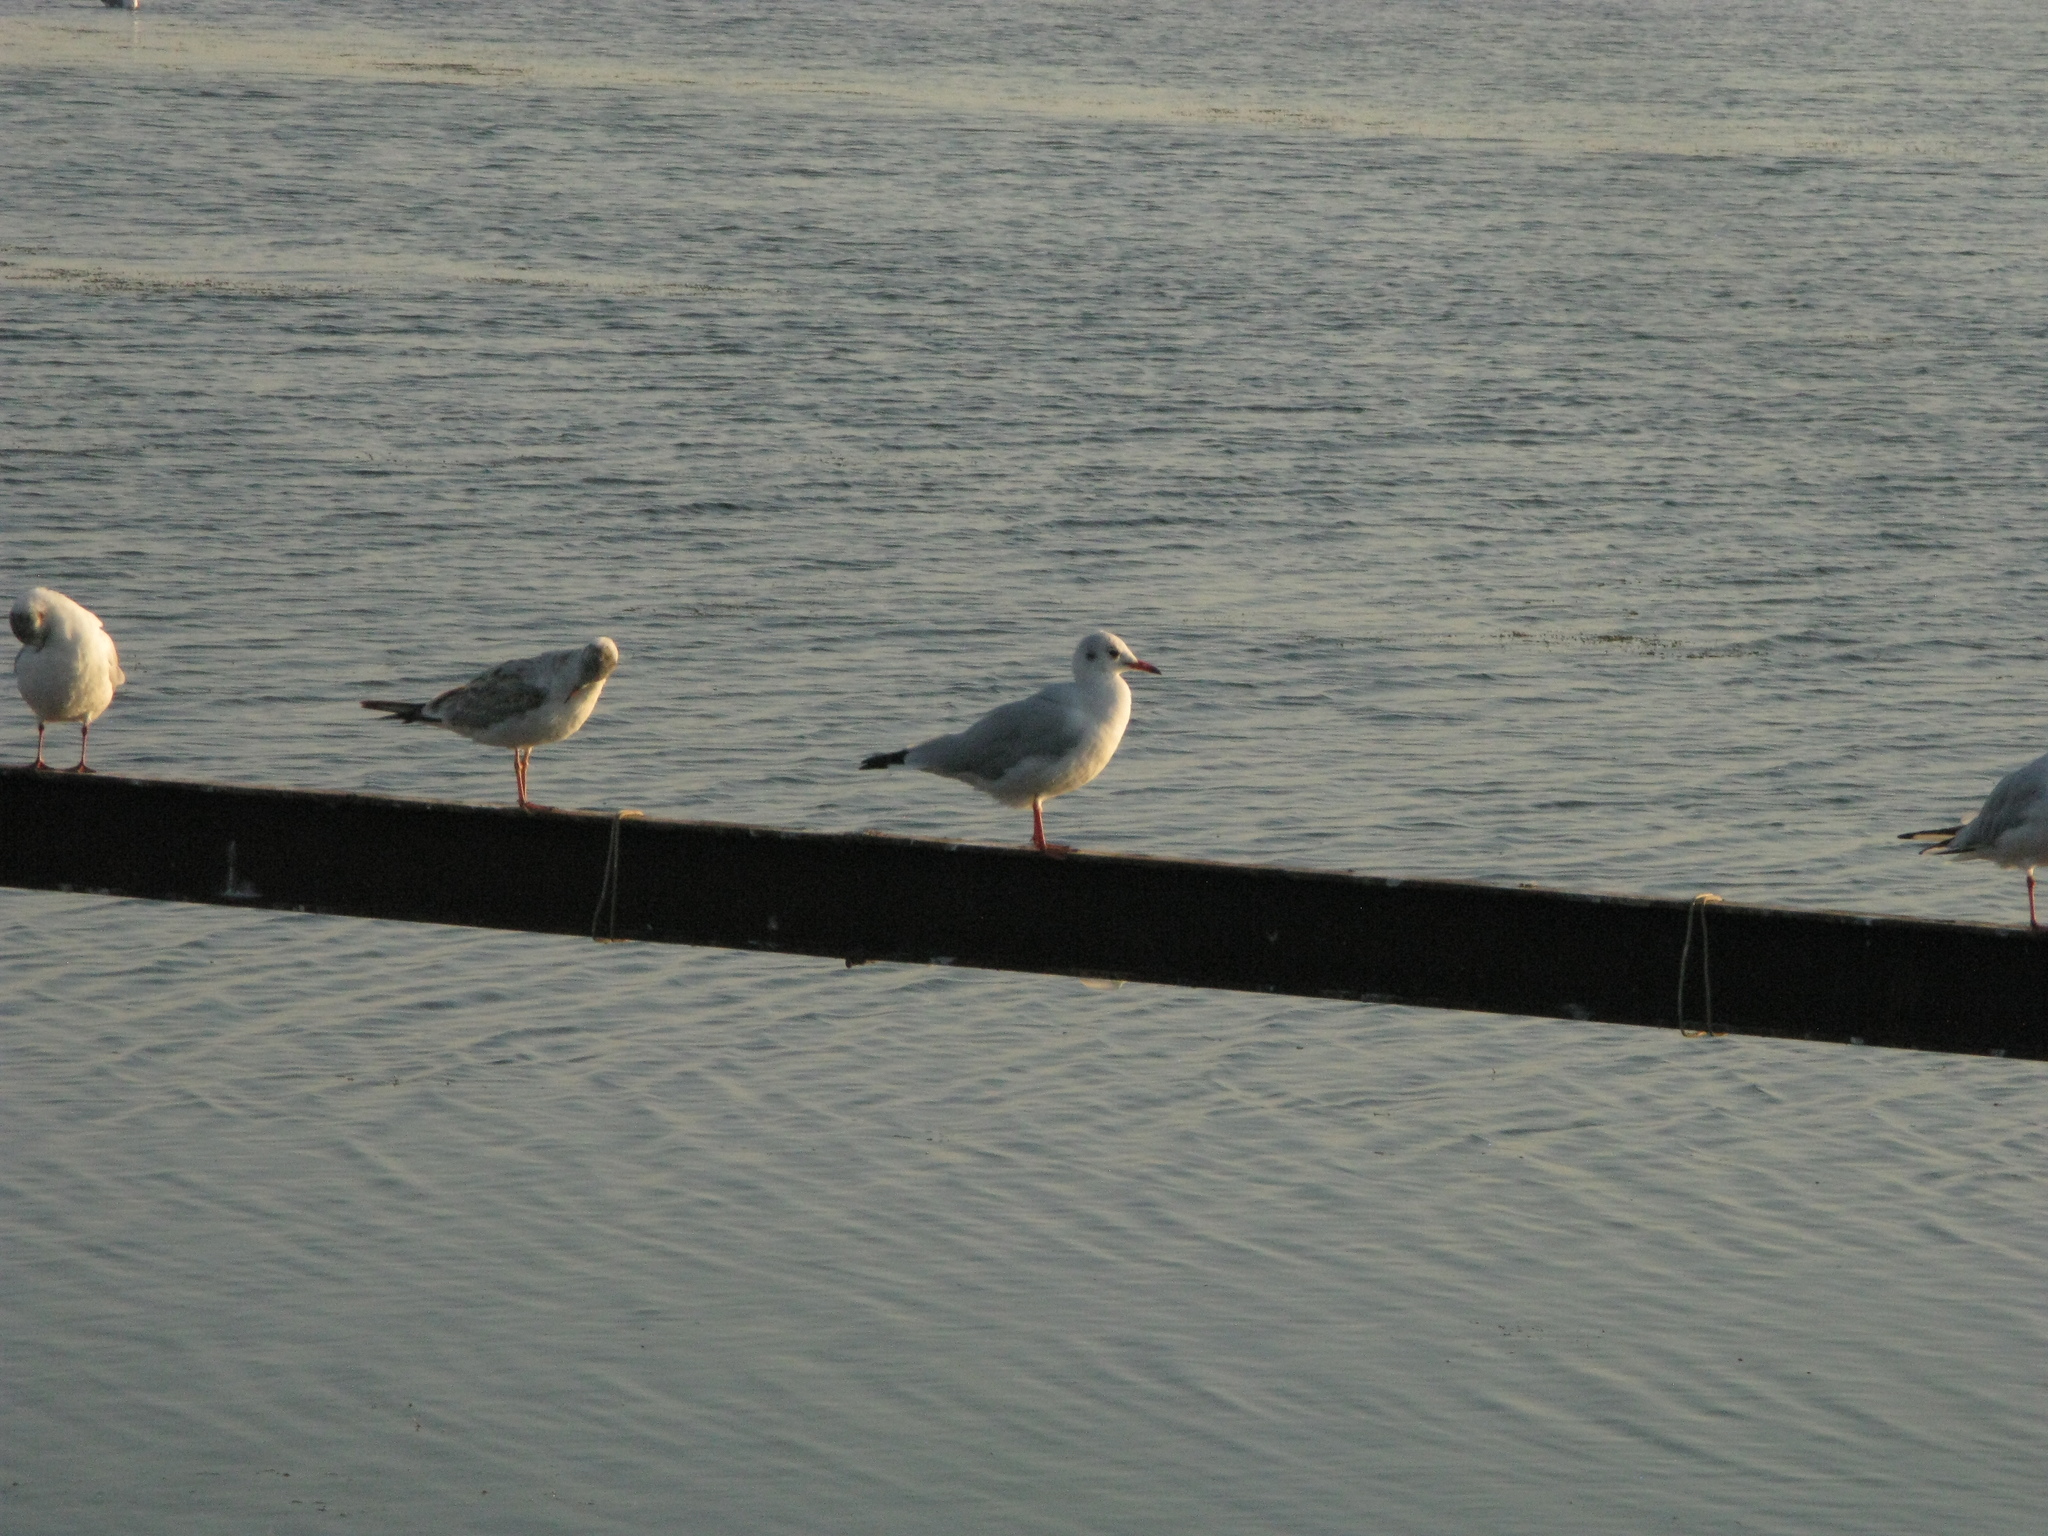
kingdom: Animalia
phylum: Chordata
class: Aves
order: Charadriiformes
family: Laridae
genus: Chroicocephalus
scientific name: Chroicocephalus ridibundus
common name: Black-headed gull
